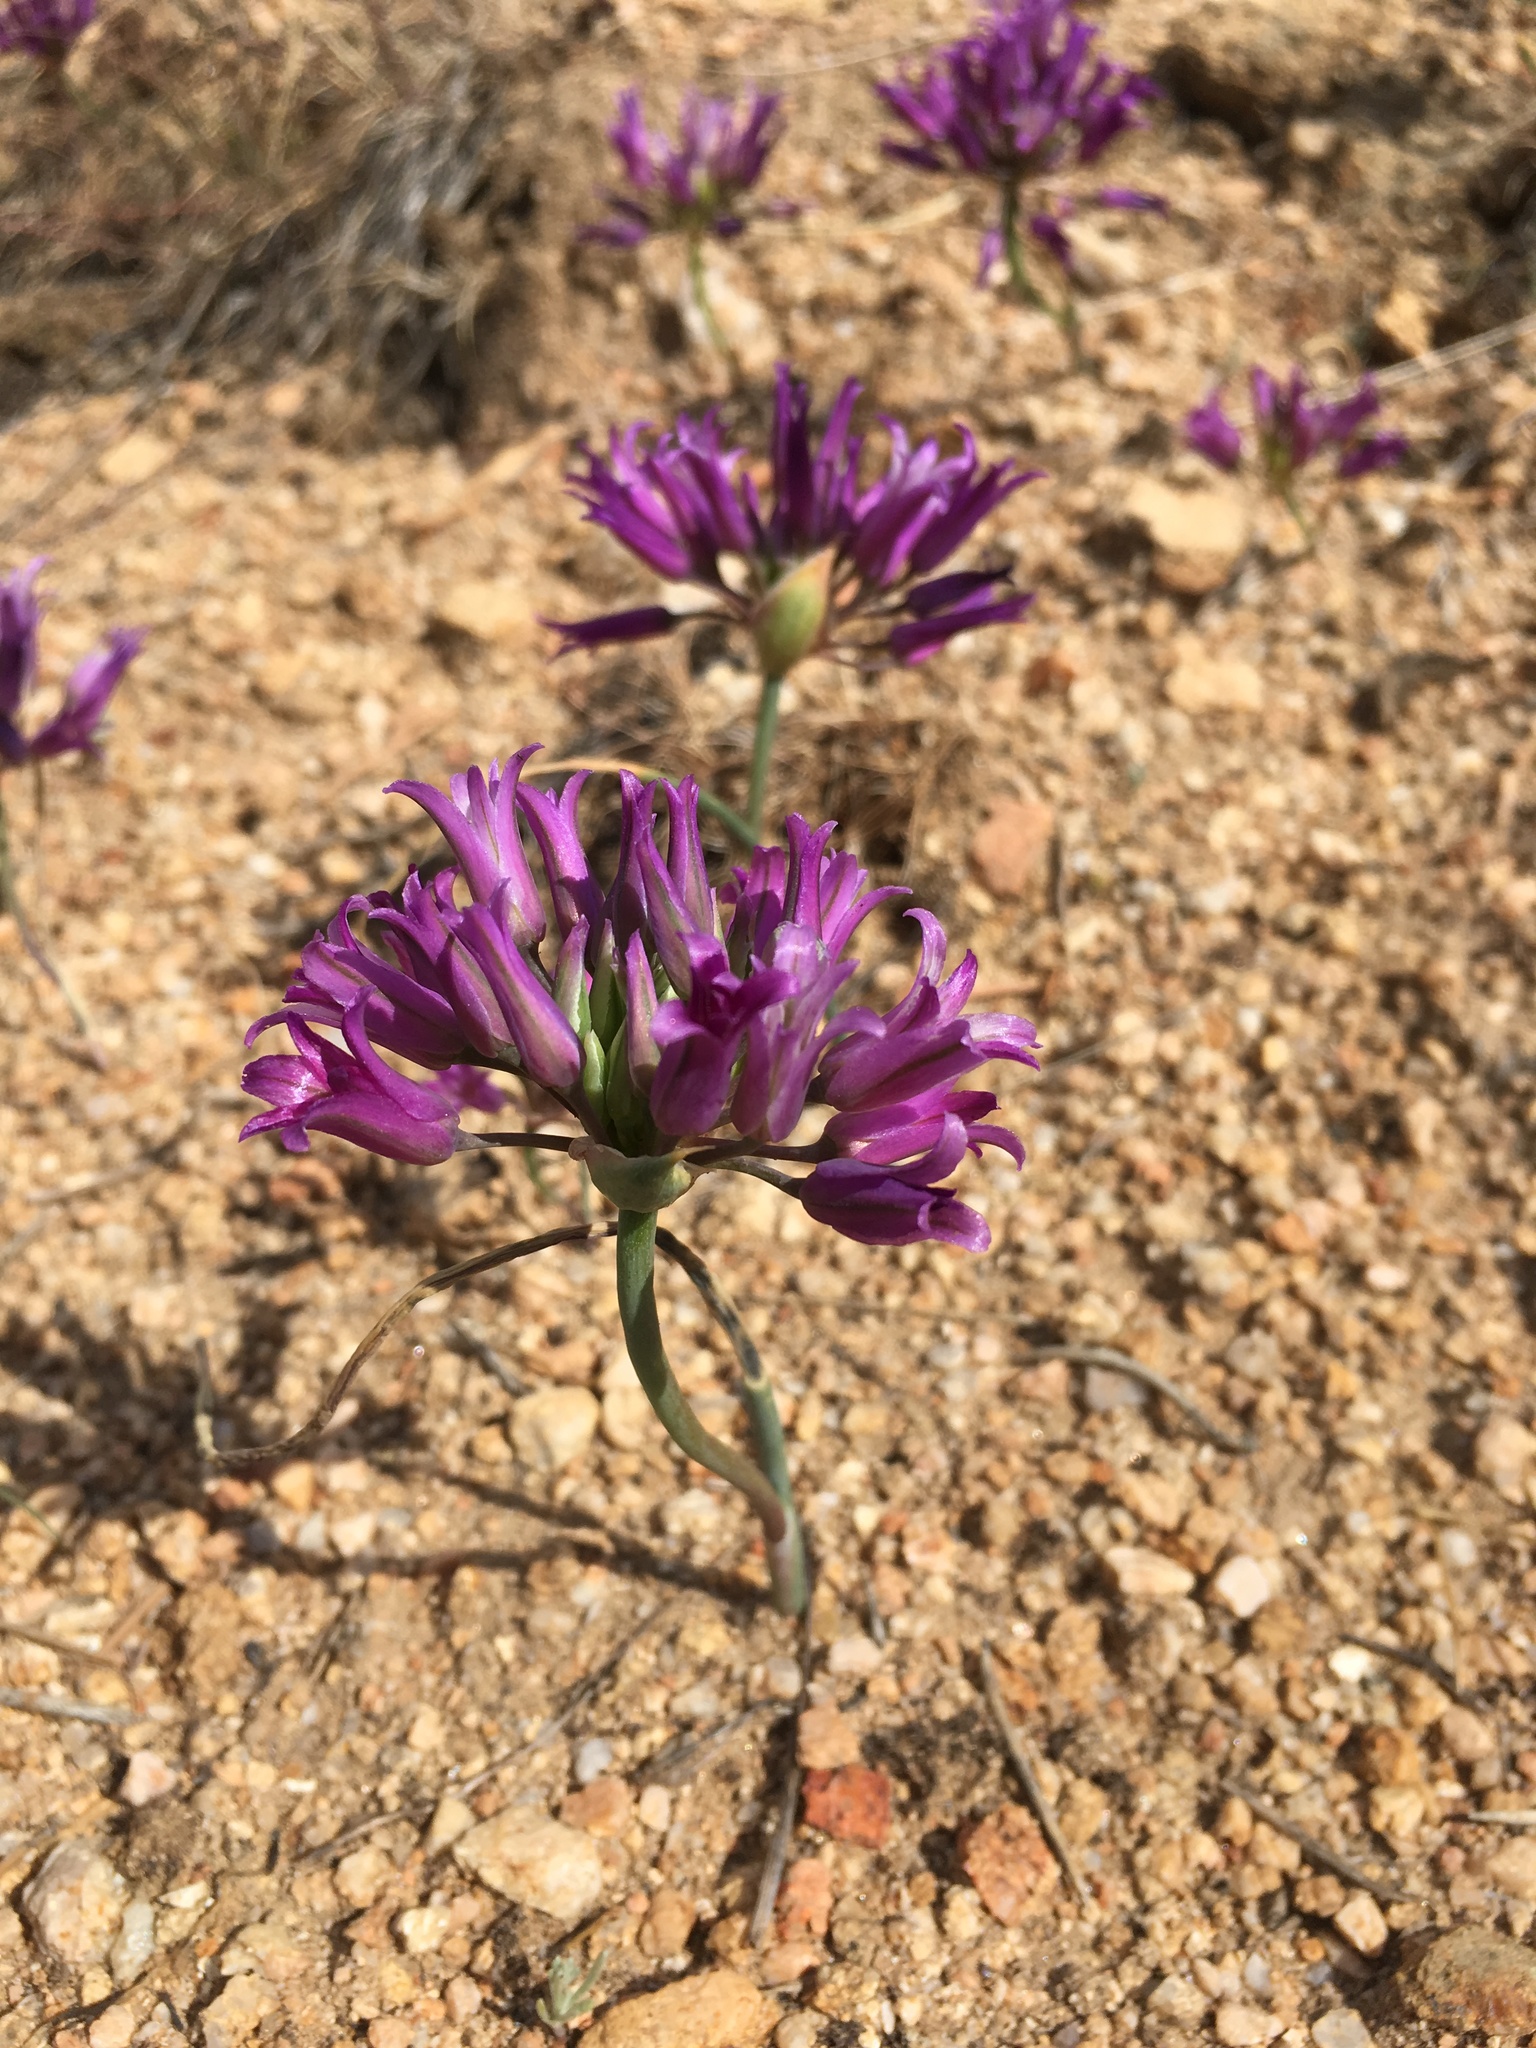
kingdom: Plantae
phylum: Tracheophyta
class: Liliopsida
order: Asparagales
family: Amaryllidaceae
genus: Allium
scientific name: Allium
